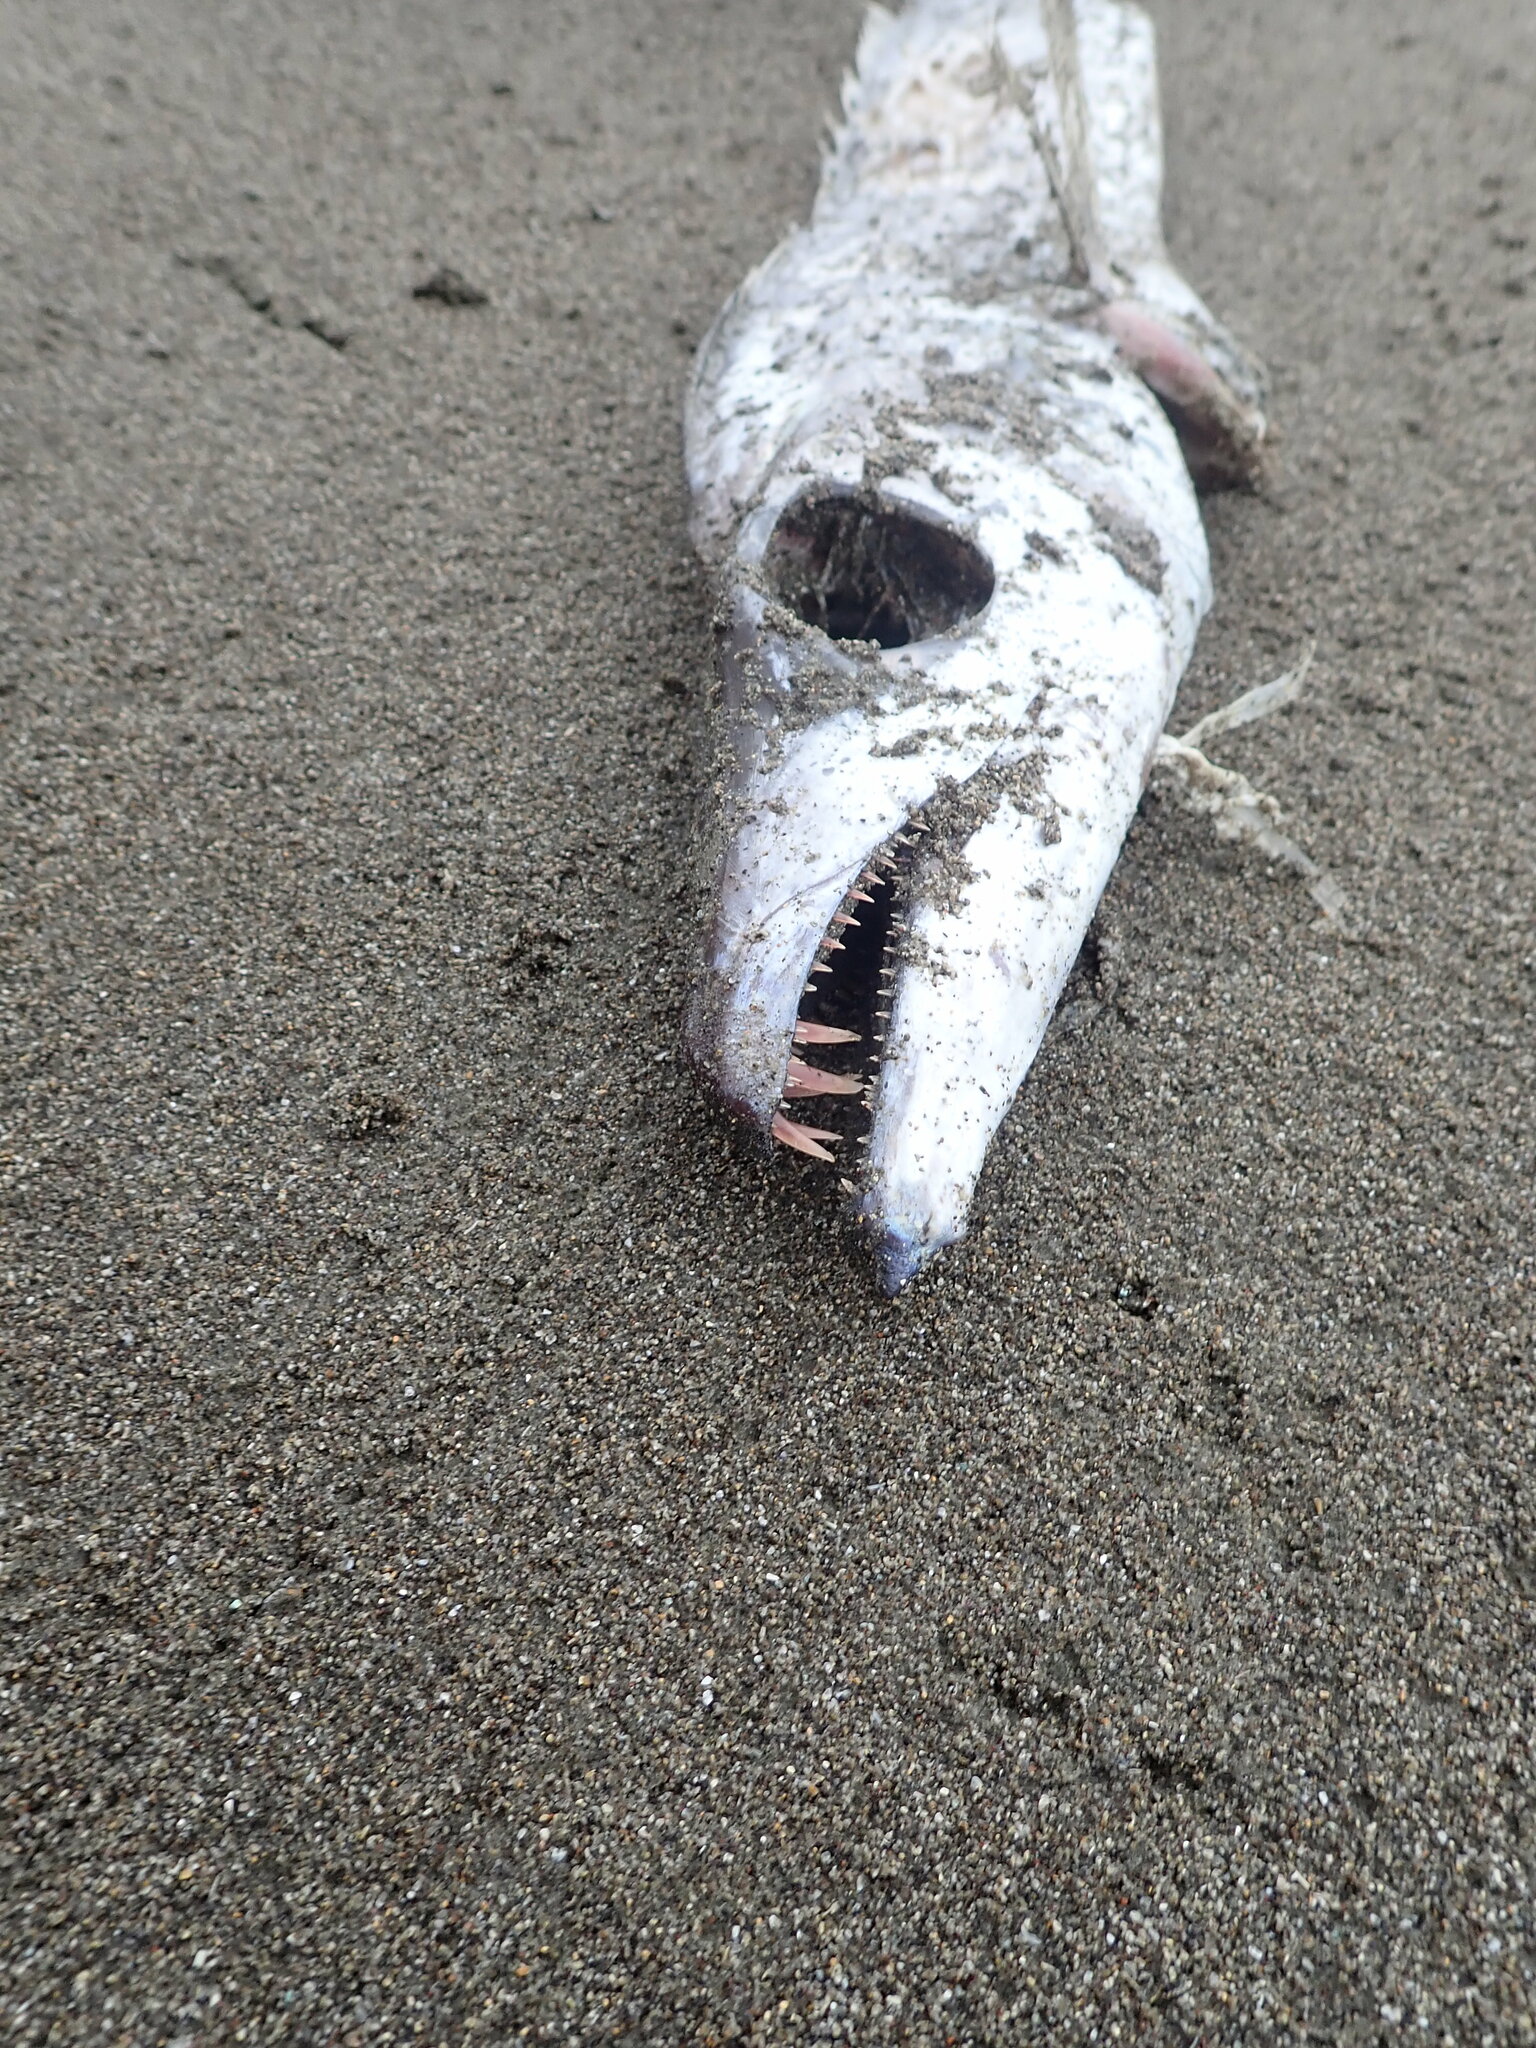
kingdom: Animalia
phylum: Chordata
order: Perciformes
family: Trichiuridae
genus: Lepidopus
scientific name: Lepidopus caudatus
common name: Silver scabbardfish
